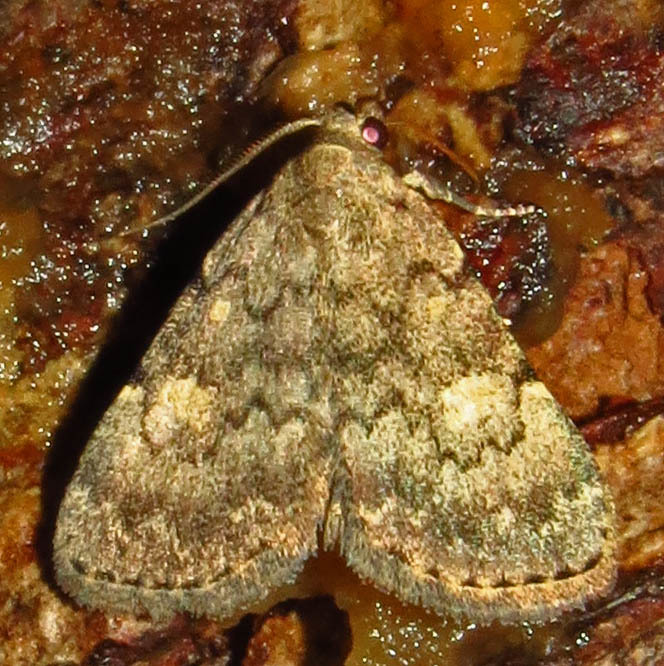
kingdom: Animalia
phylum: Arthropoda
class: Insecta
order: Lepidoptera
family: Erebidae
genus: Idia
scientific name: Idia aemula
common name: Common idia moth
